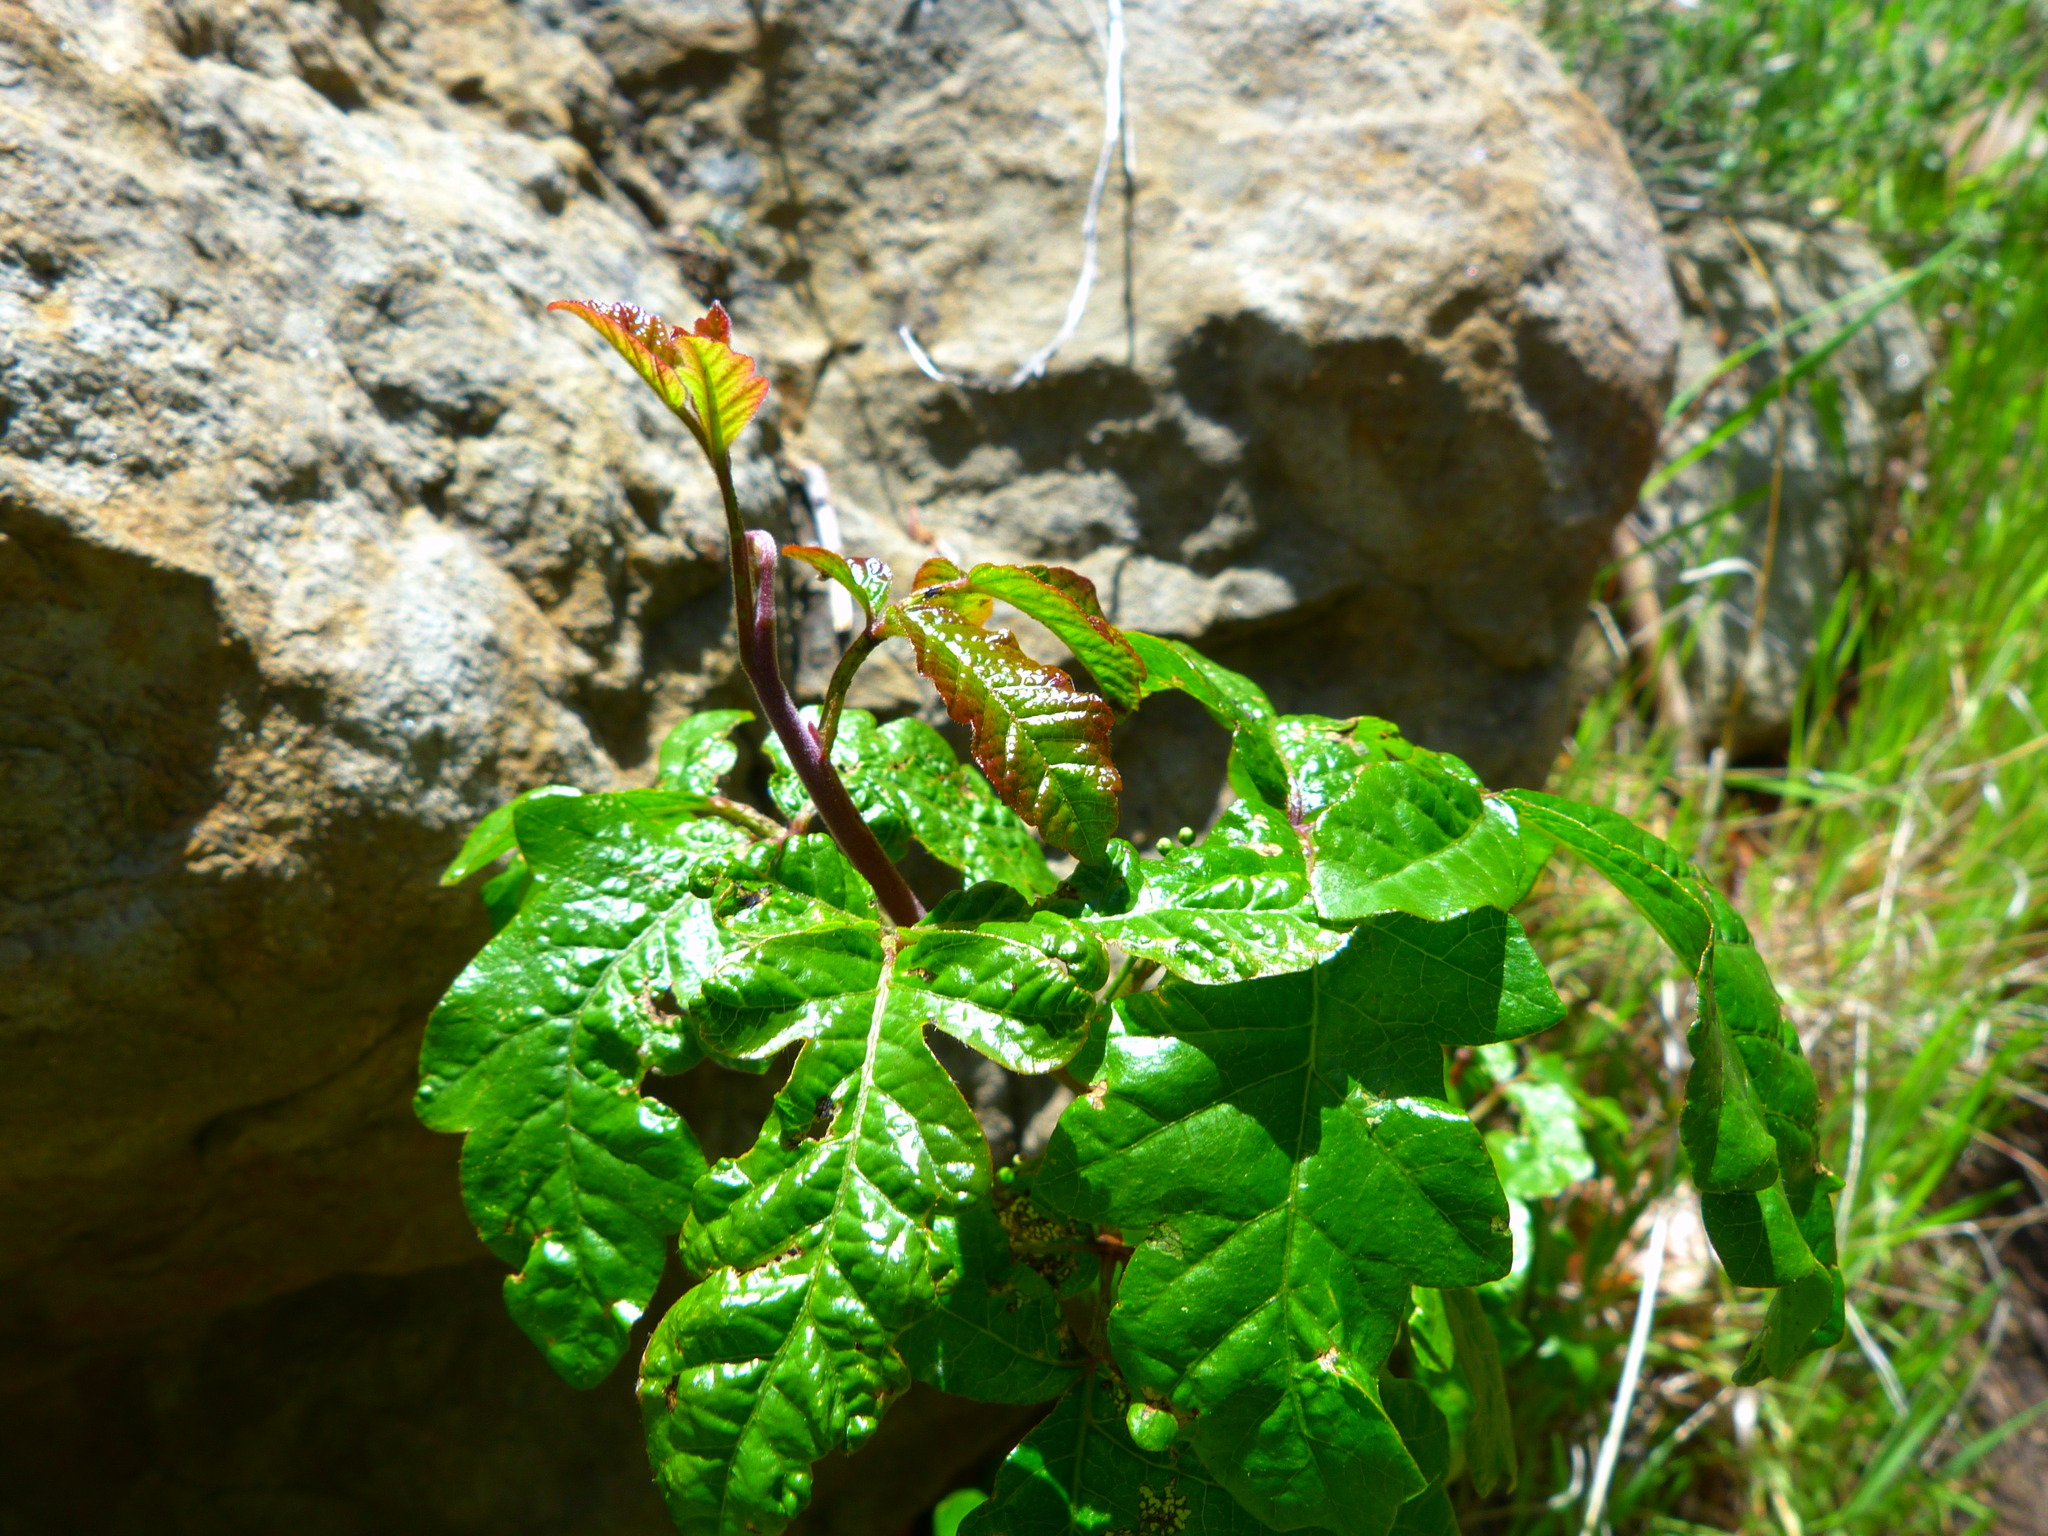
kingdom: Plantae
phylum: Tracheophyta
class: Magnoliopsida
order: Sapindales
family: Anacardiaceae
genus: Toxicodendron
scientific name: Toxicodendron diversilobum
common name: Pacific poison-oak
